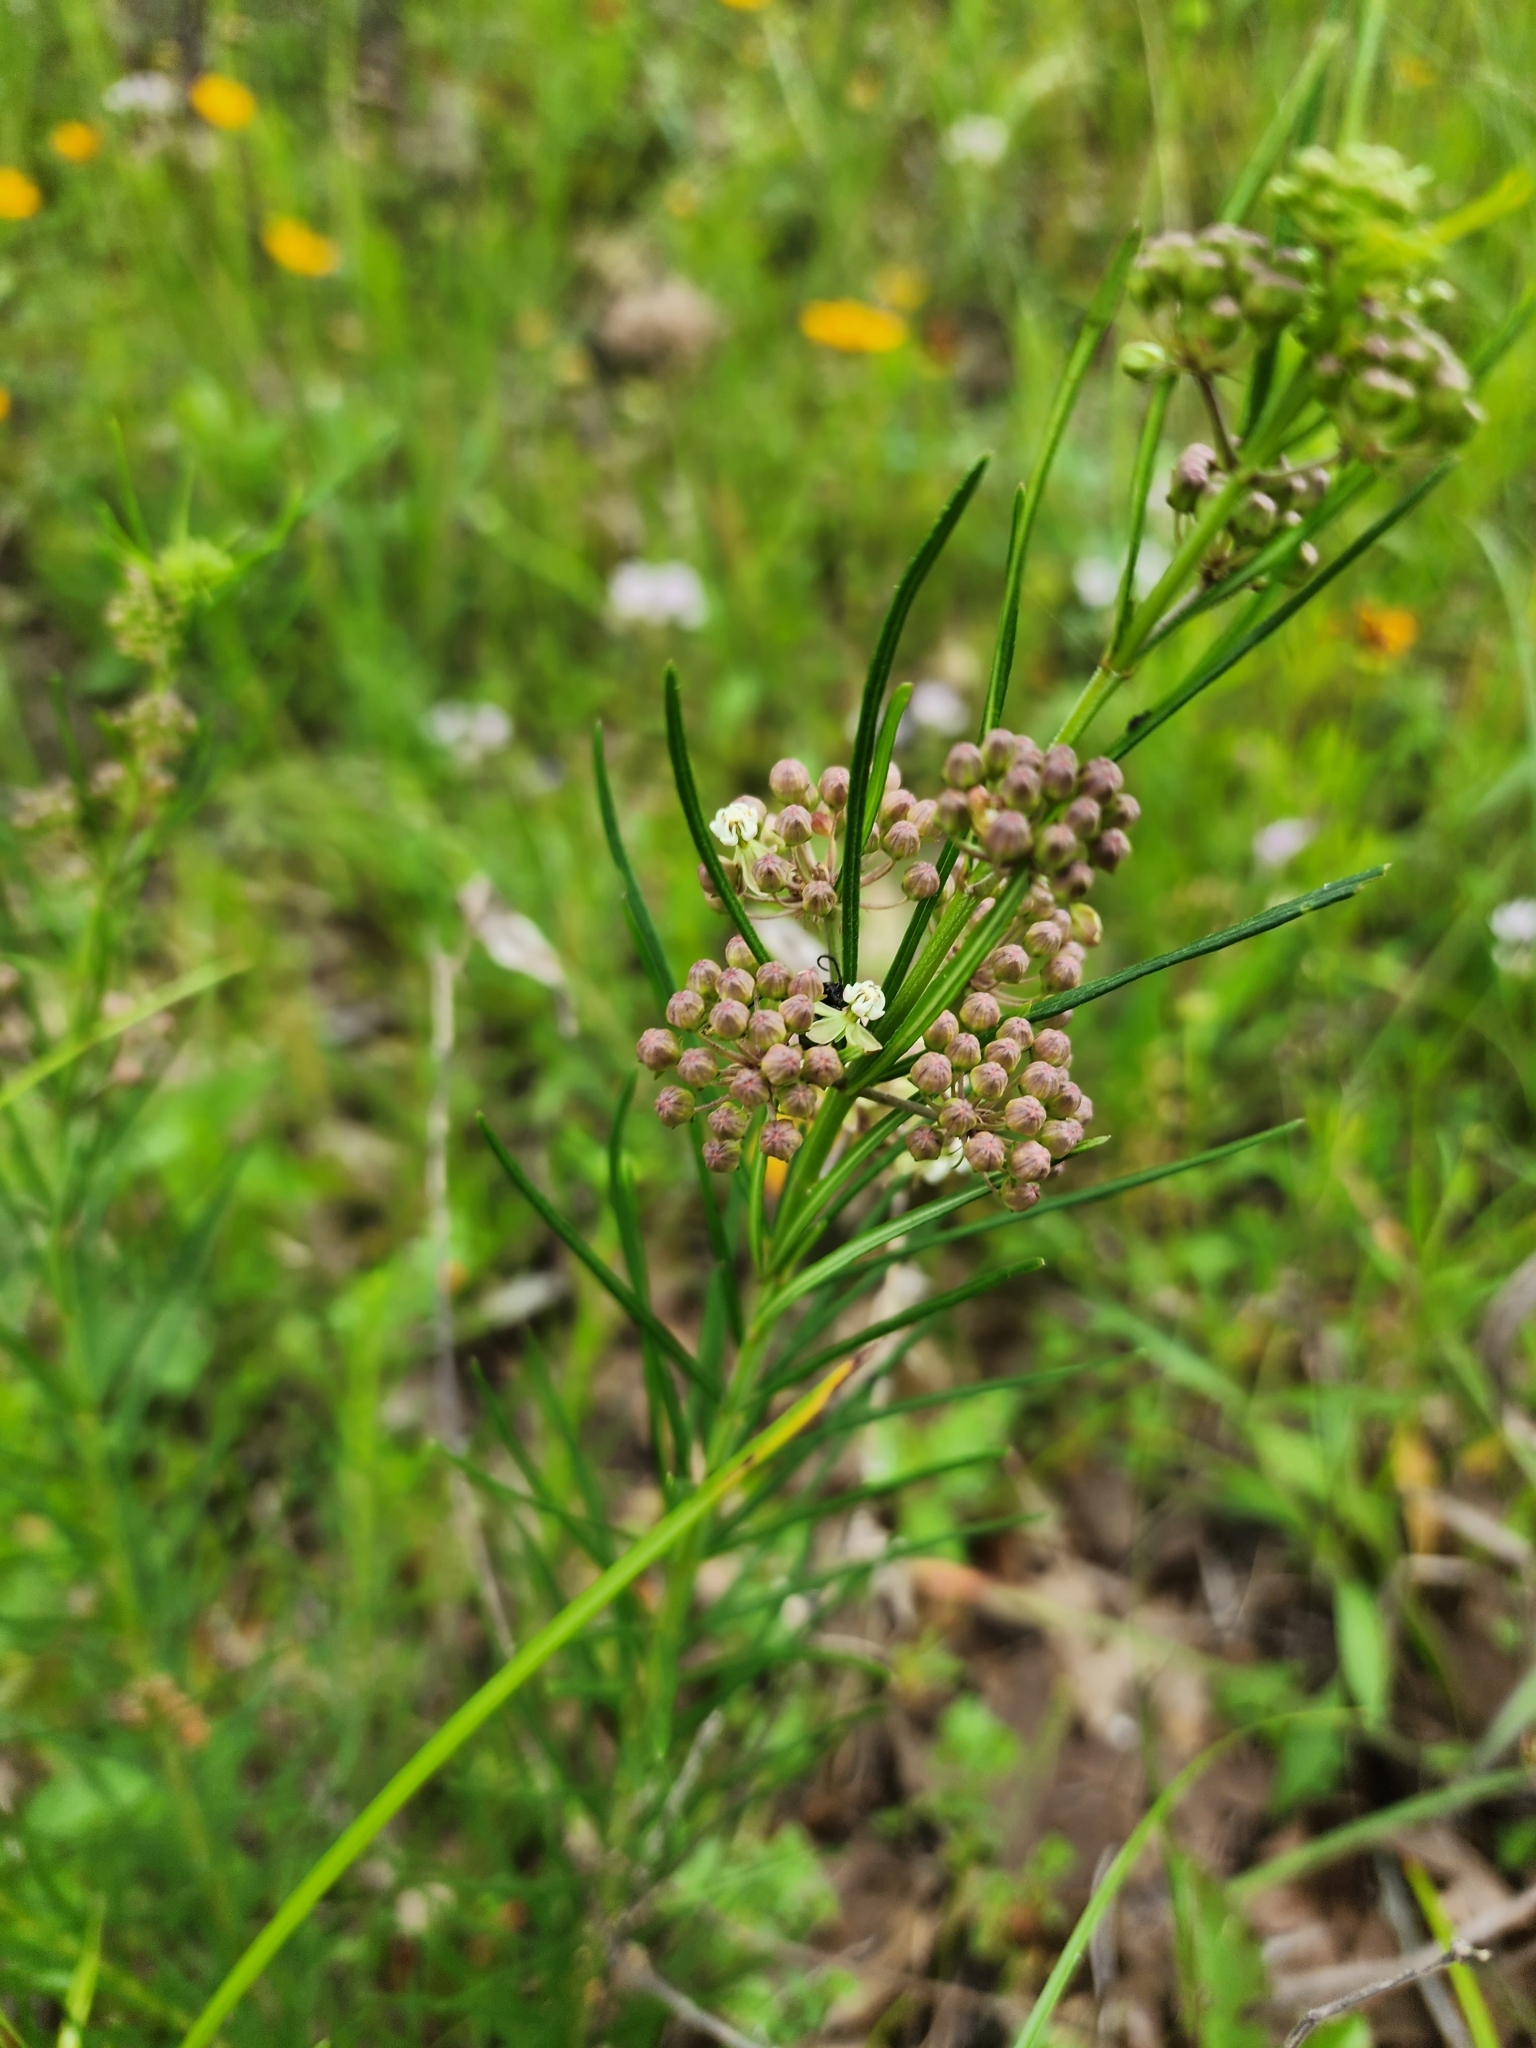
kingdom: Plantae
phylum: Tracheophyta
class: Magnoliopsida
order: Gentianales
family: Apocynaceae
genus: Asclepias
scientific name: Asclepias verticillata
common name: Eastern whorled milkweed
